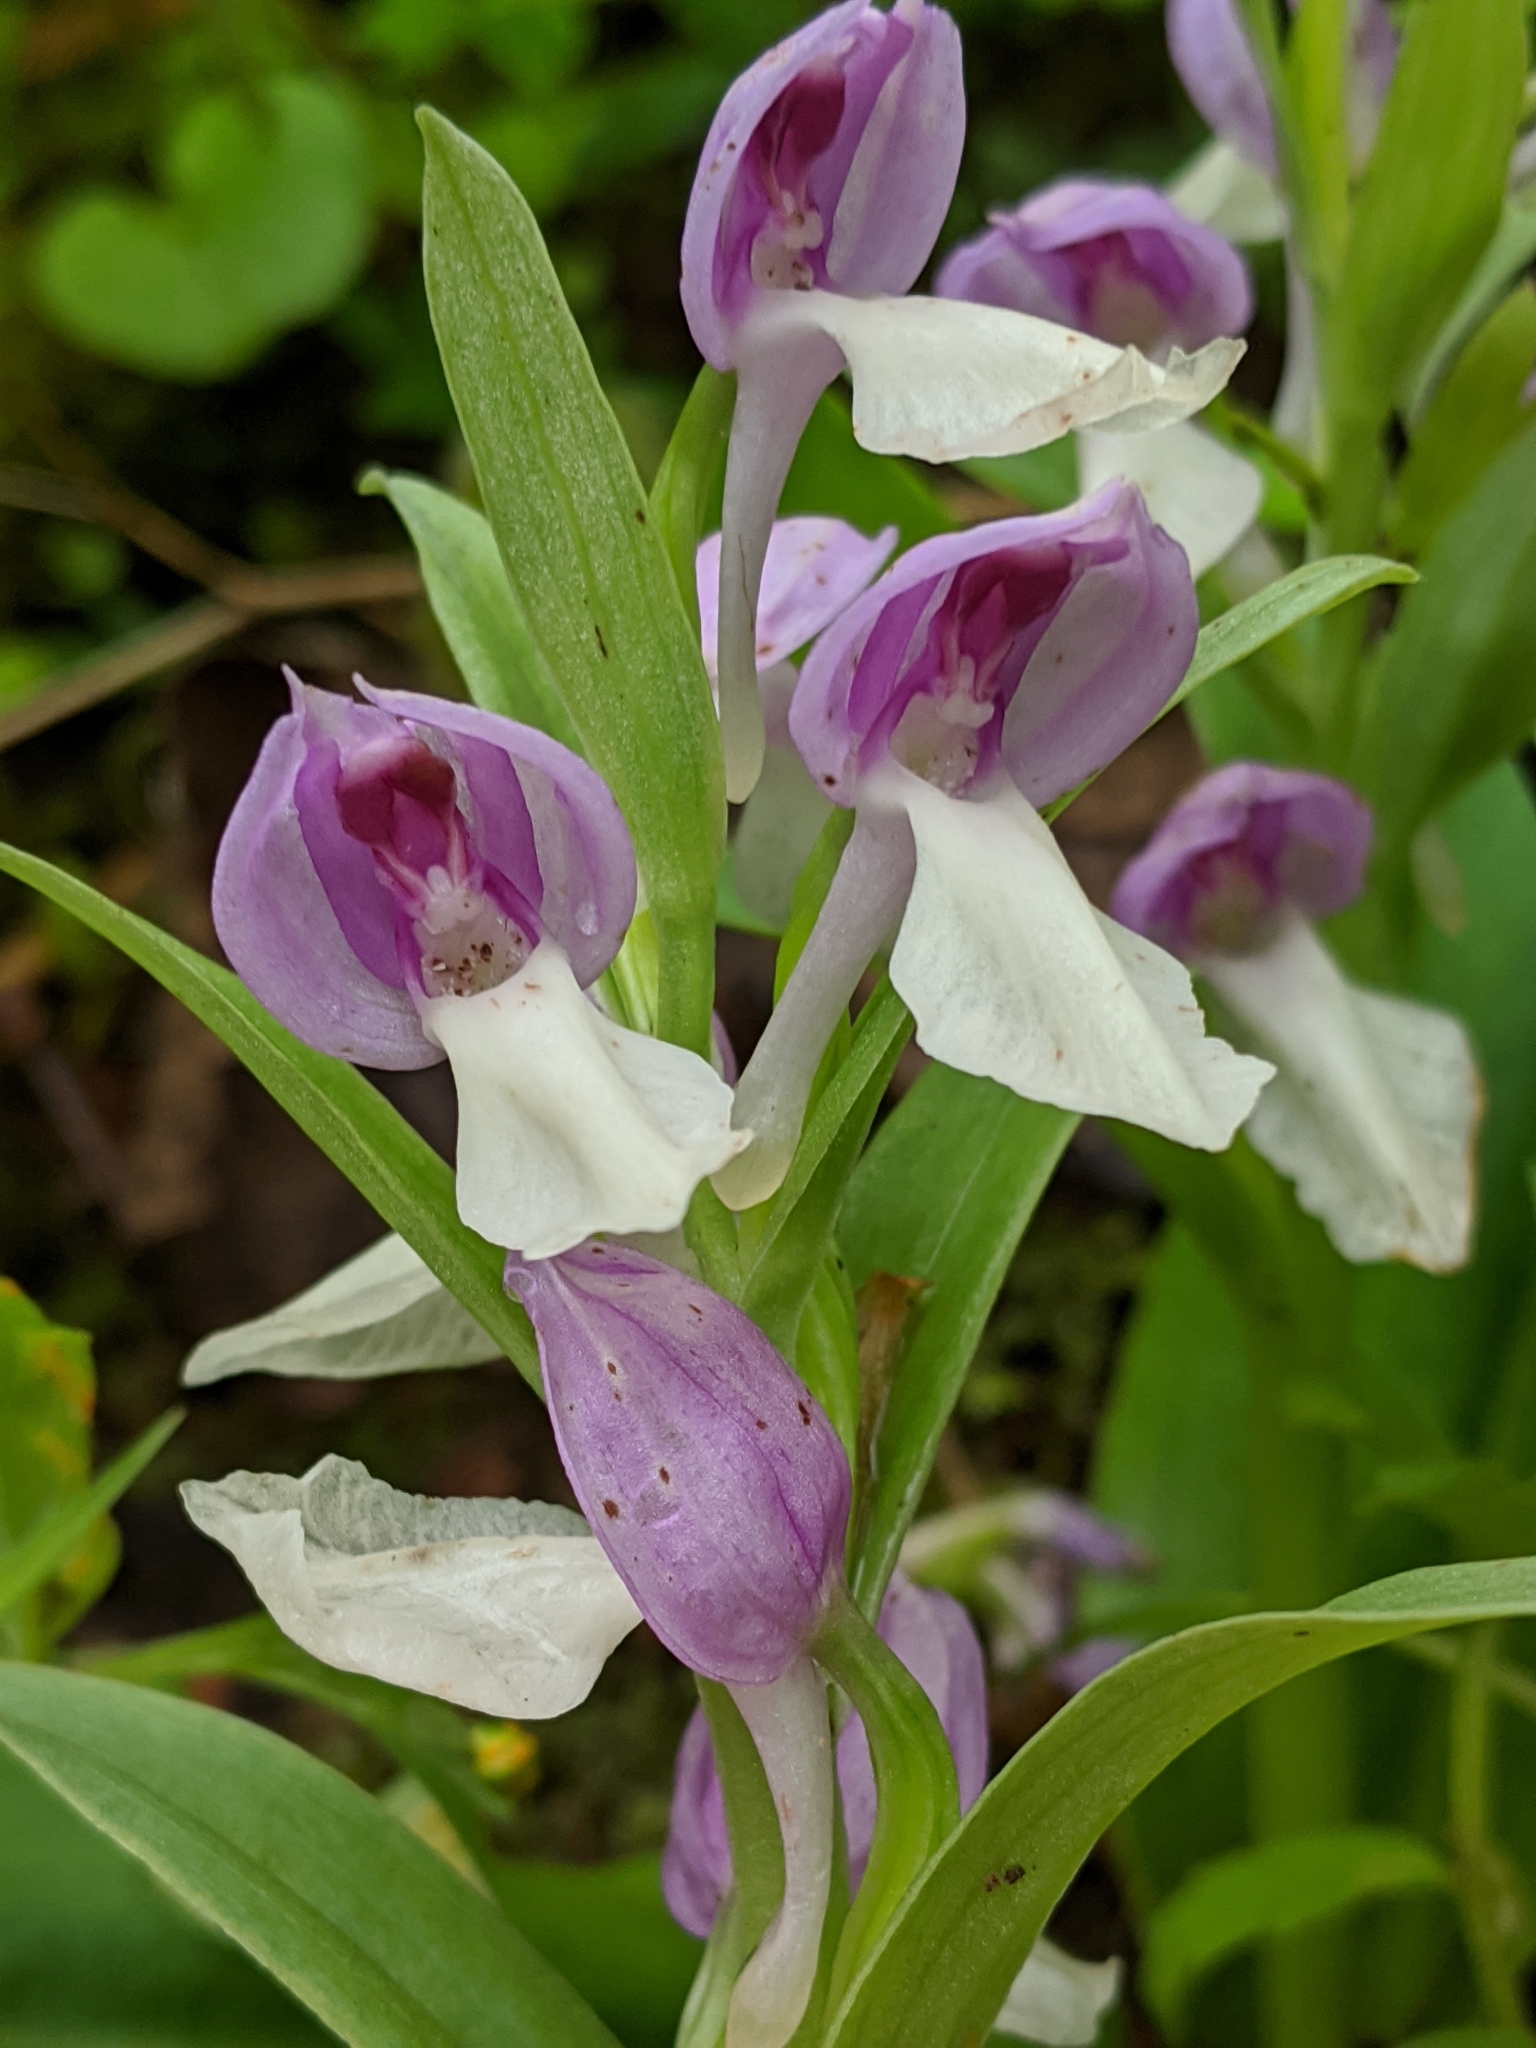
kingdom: Plantae
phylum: Tracheophyta
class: Liliopsida
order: Asparagales
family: Orchidaceae
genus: Galearis
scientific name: Galearis spectabilis
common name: Purple-hooded orchis
